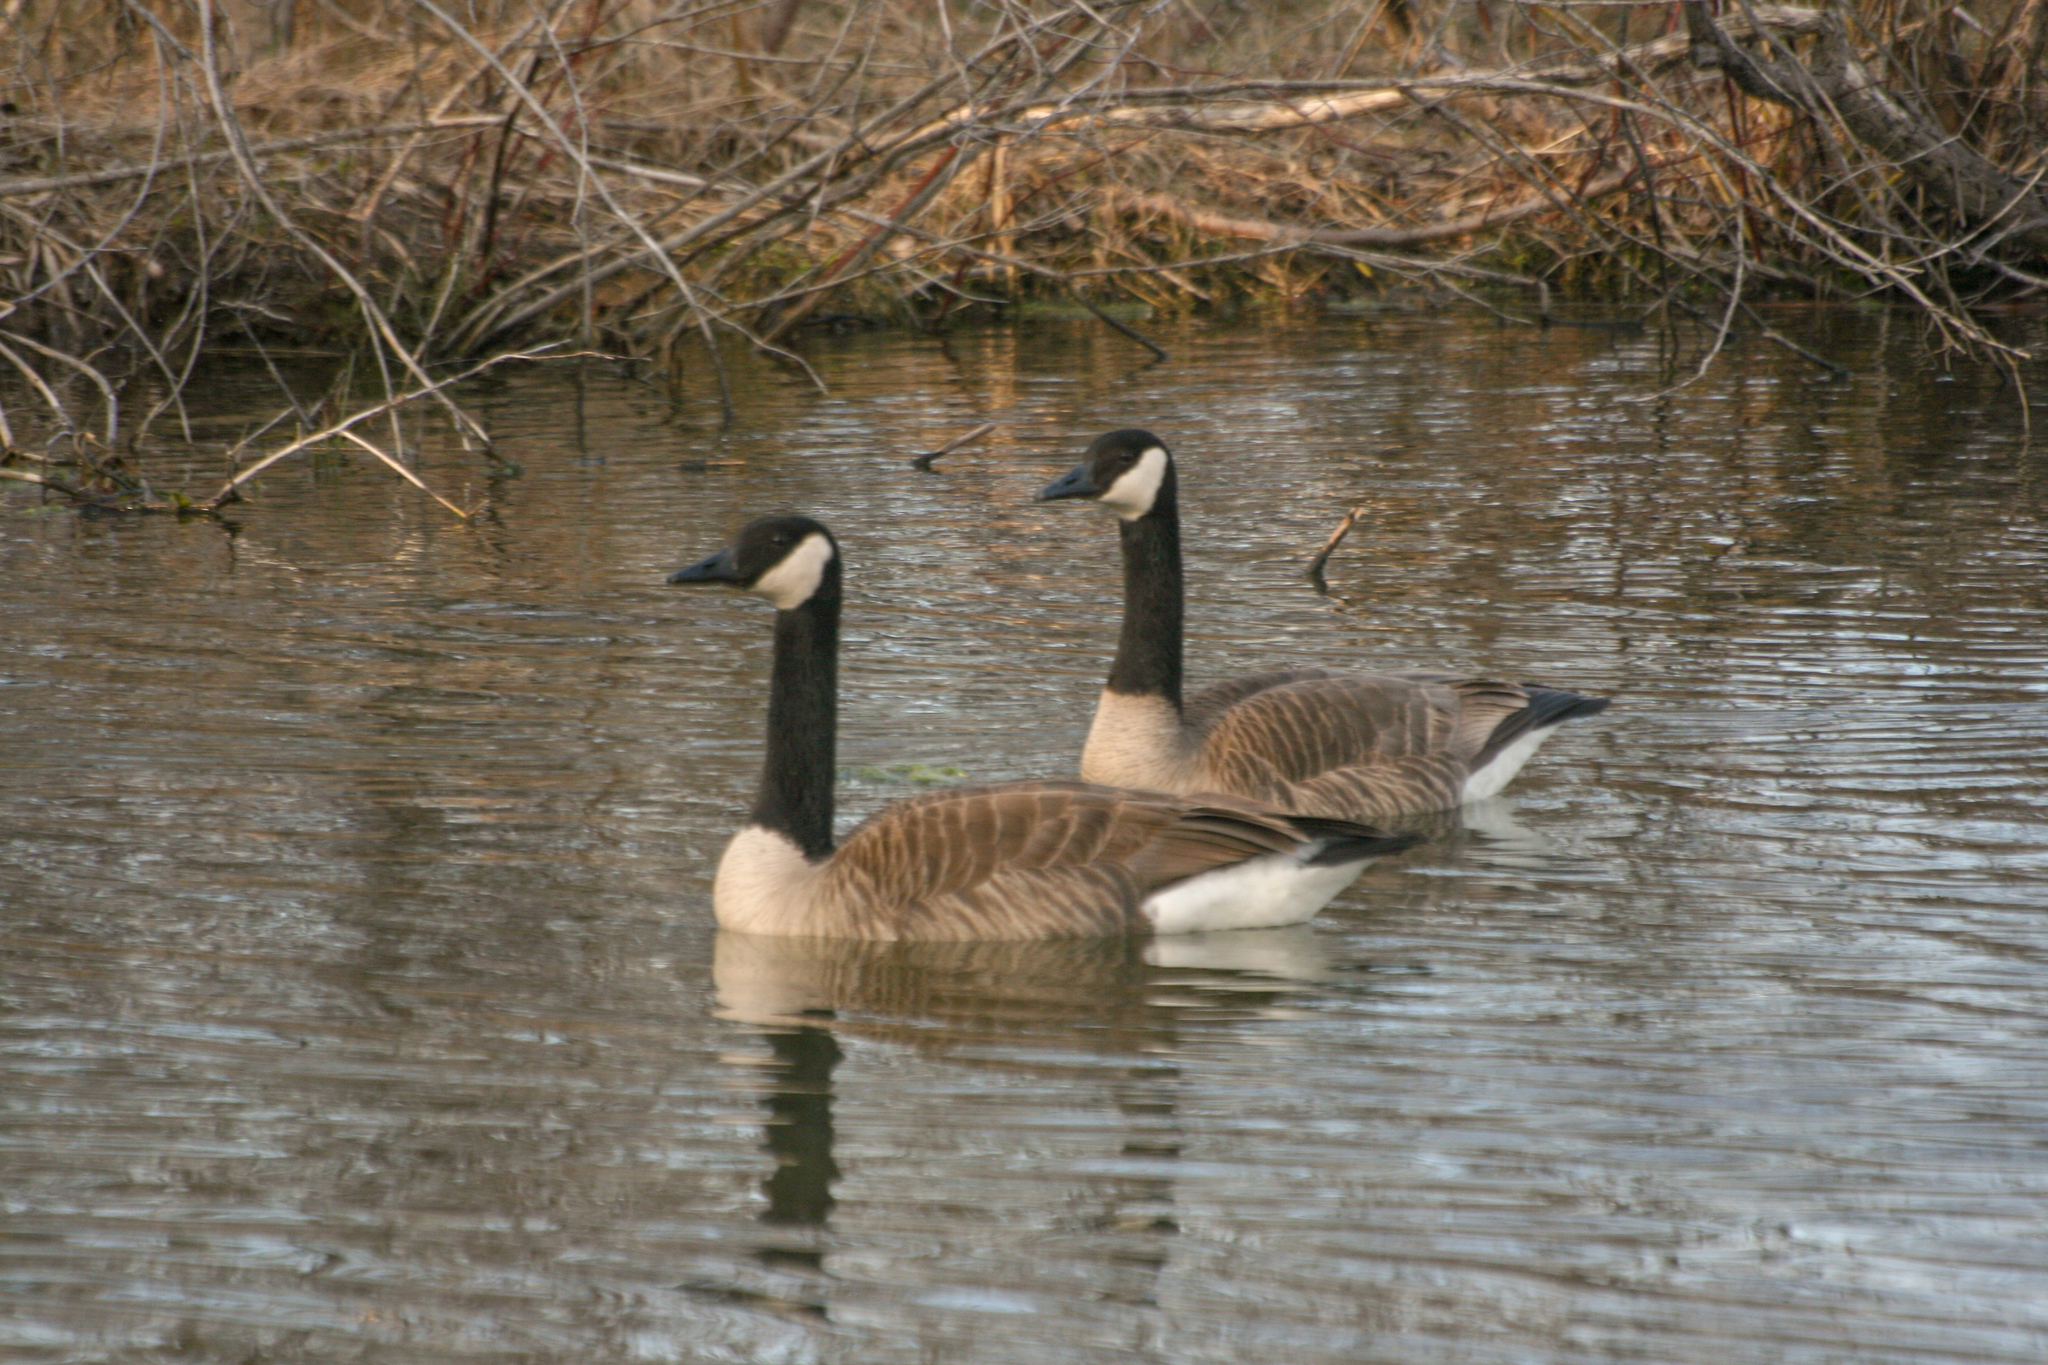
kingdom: Animalia
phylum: Chordata
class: Aves
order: Anseriformes
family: Anatidae
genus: Branta
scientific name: Branta canadensis
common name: Canada goose
